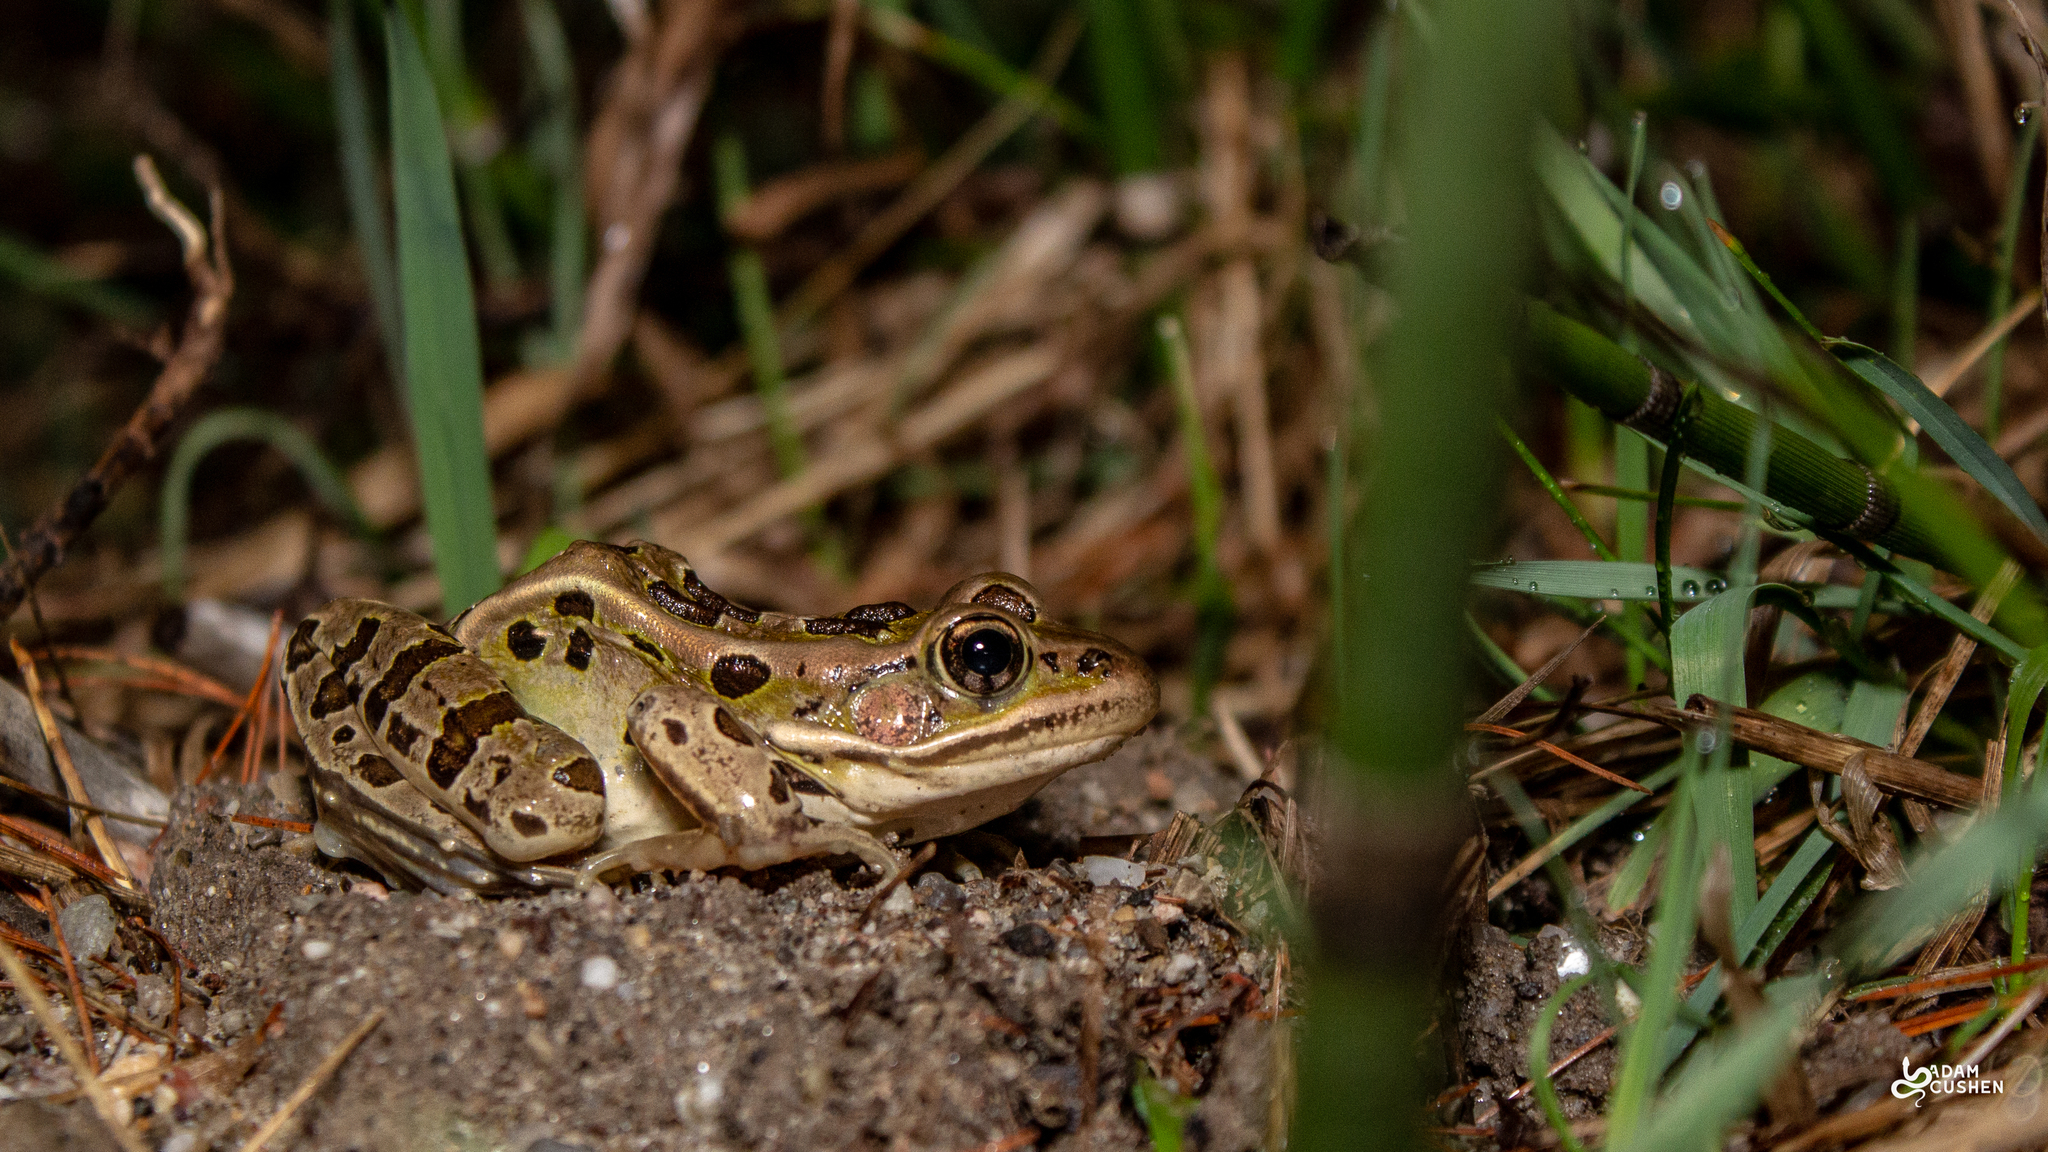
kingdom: Animalia
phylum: Chordata
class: Amphibia
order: Anura
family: Ranidae
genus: Lithobates
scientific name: Lithobates pipiens
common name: Northern leopard frog
